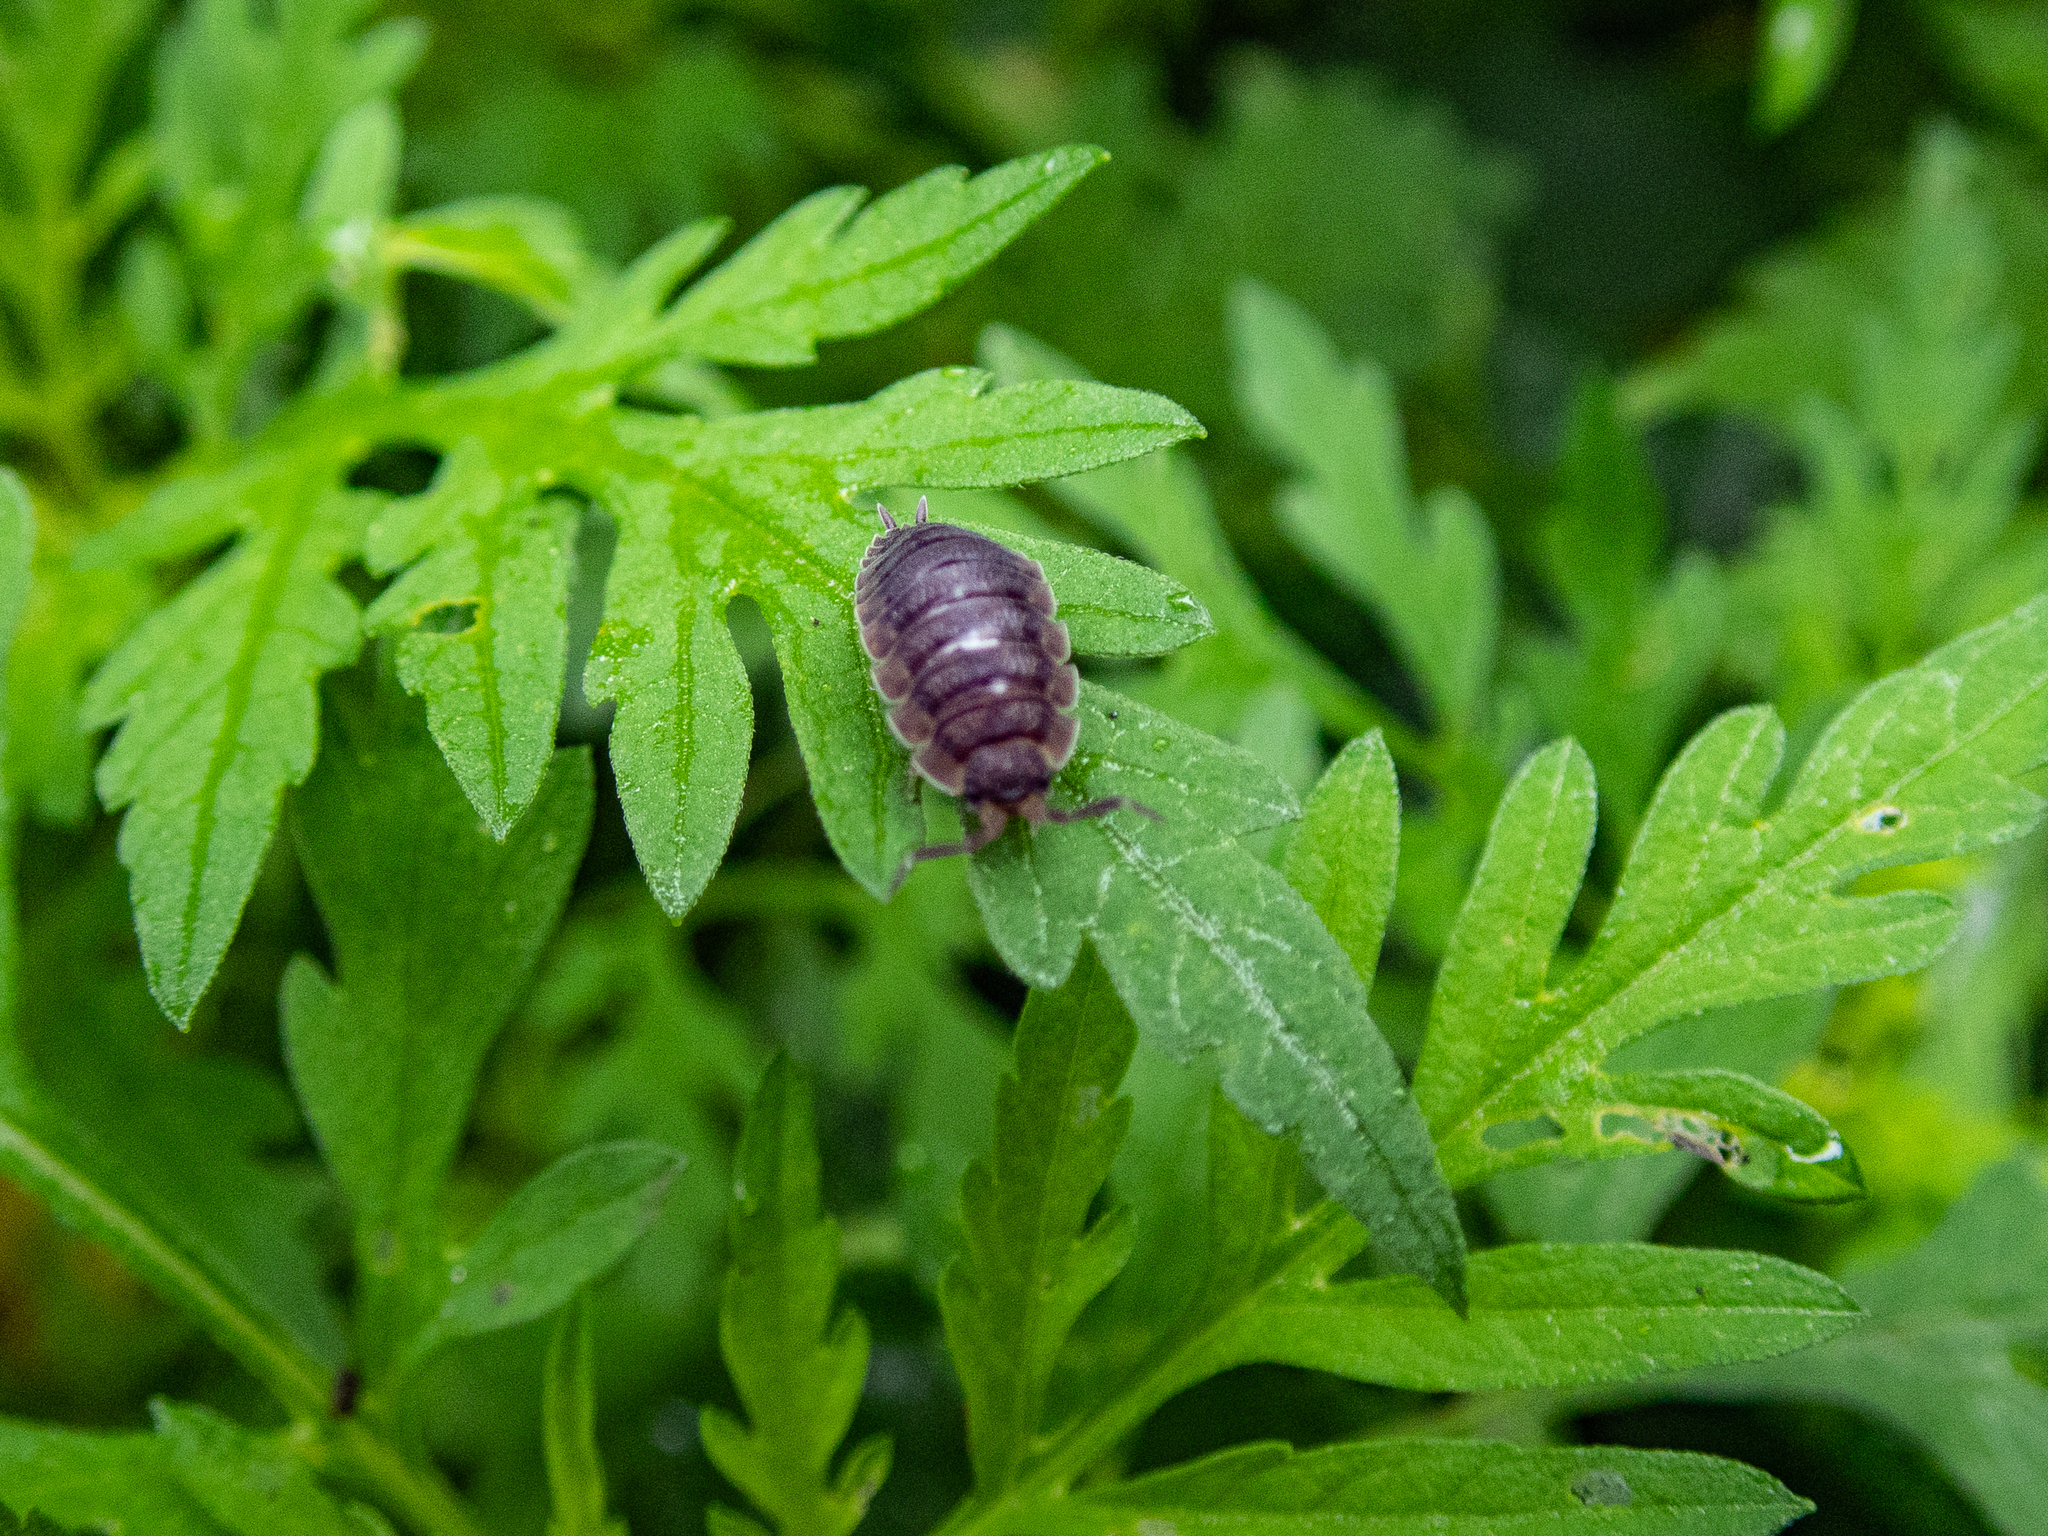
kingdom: Animalia
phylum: Arthropoda
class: Malacostraca
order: Isopoda
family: Porcellionidae
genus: Porcellio
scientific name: Porcellio scaber
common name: Common rough woodlouse
